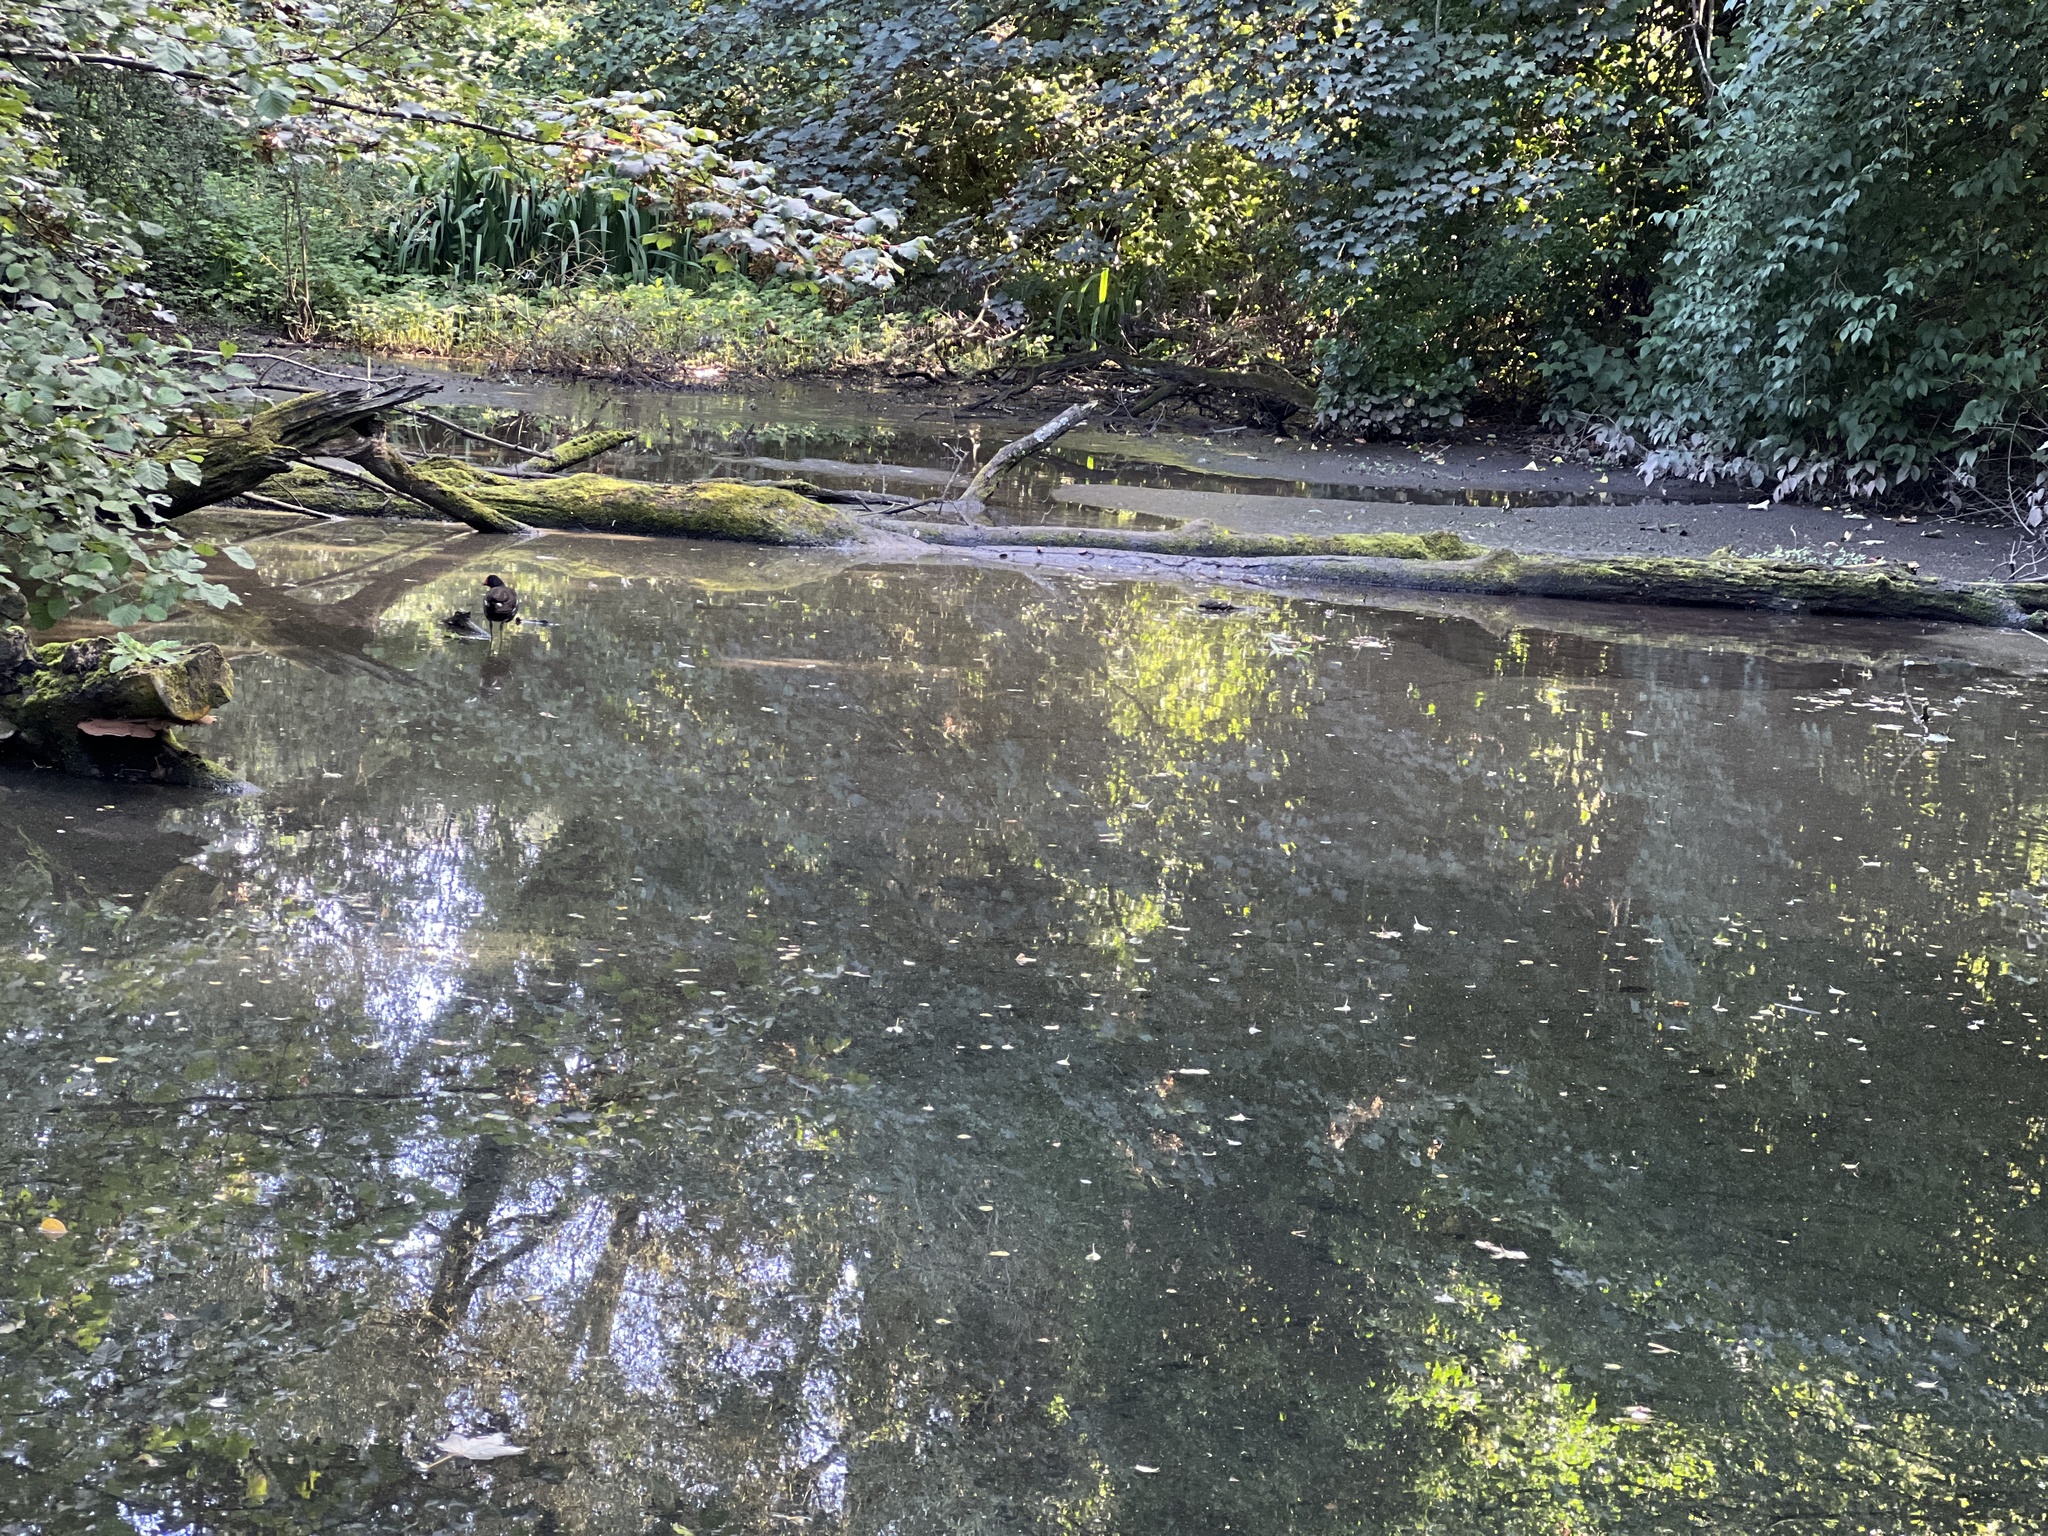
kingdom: Animalia
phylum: Chordata
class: Aves
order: Gruiformes
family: Rallidae
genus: Gallinula
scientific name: Gallinula chloropus
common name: Common moorhen
